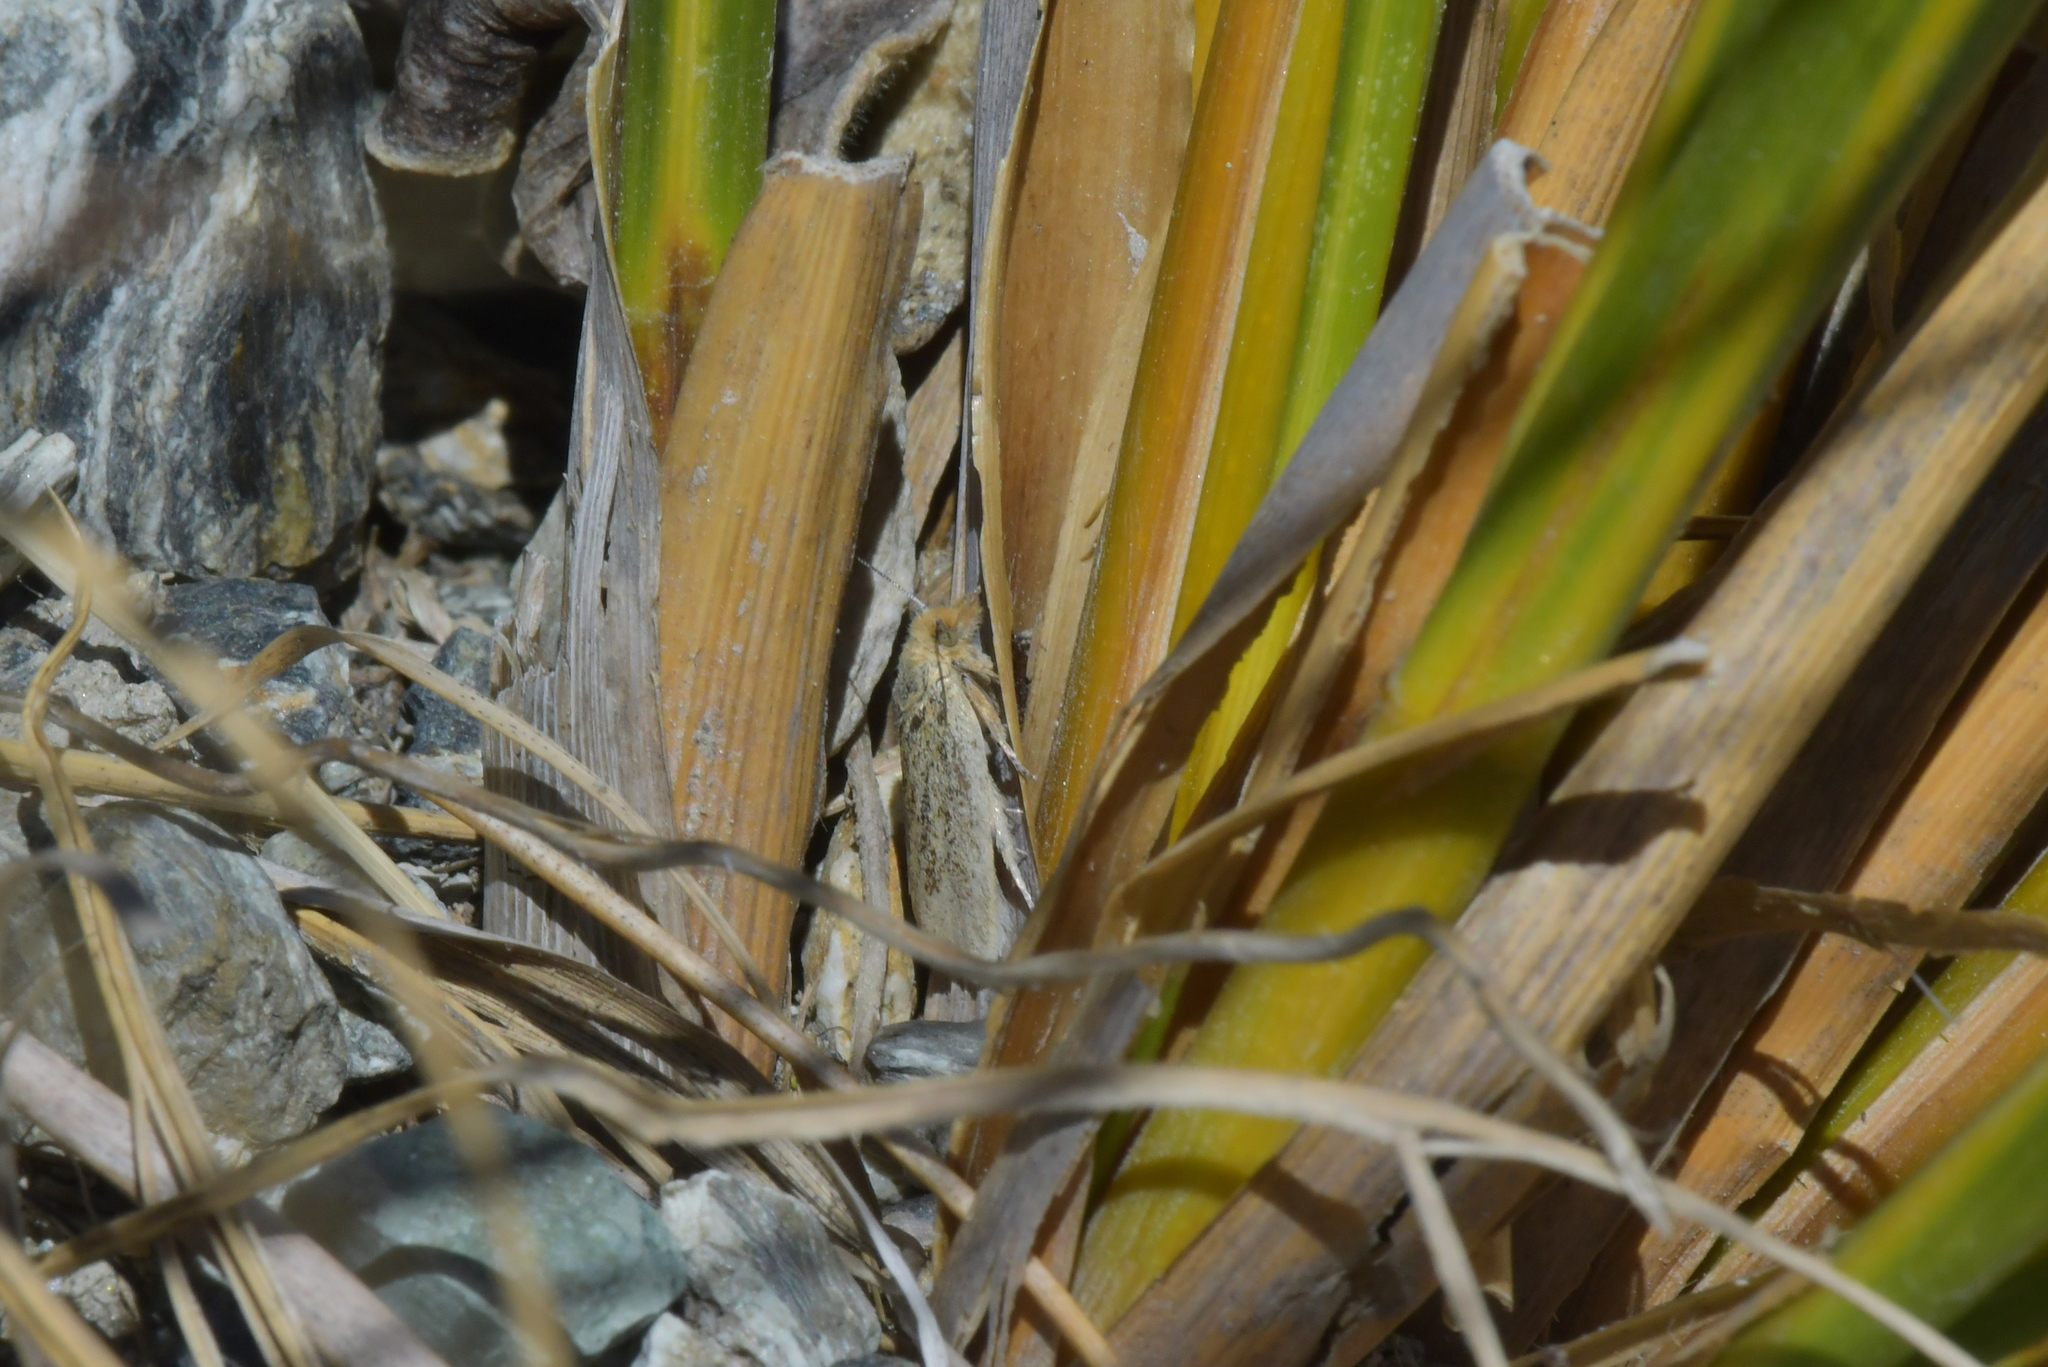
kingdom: Animalia
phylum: Arthropoda
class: Insecta
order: Lepidoptera
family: Tortricidae
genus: Ascerodes
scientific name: Ascerodes prochlora
